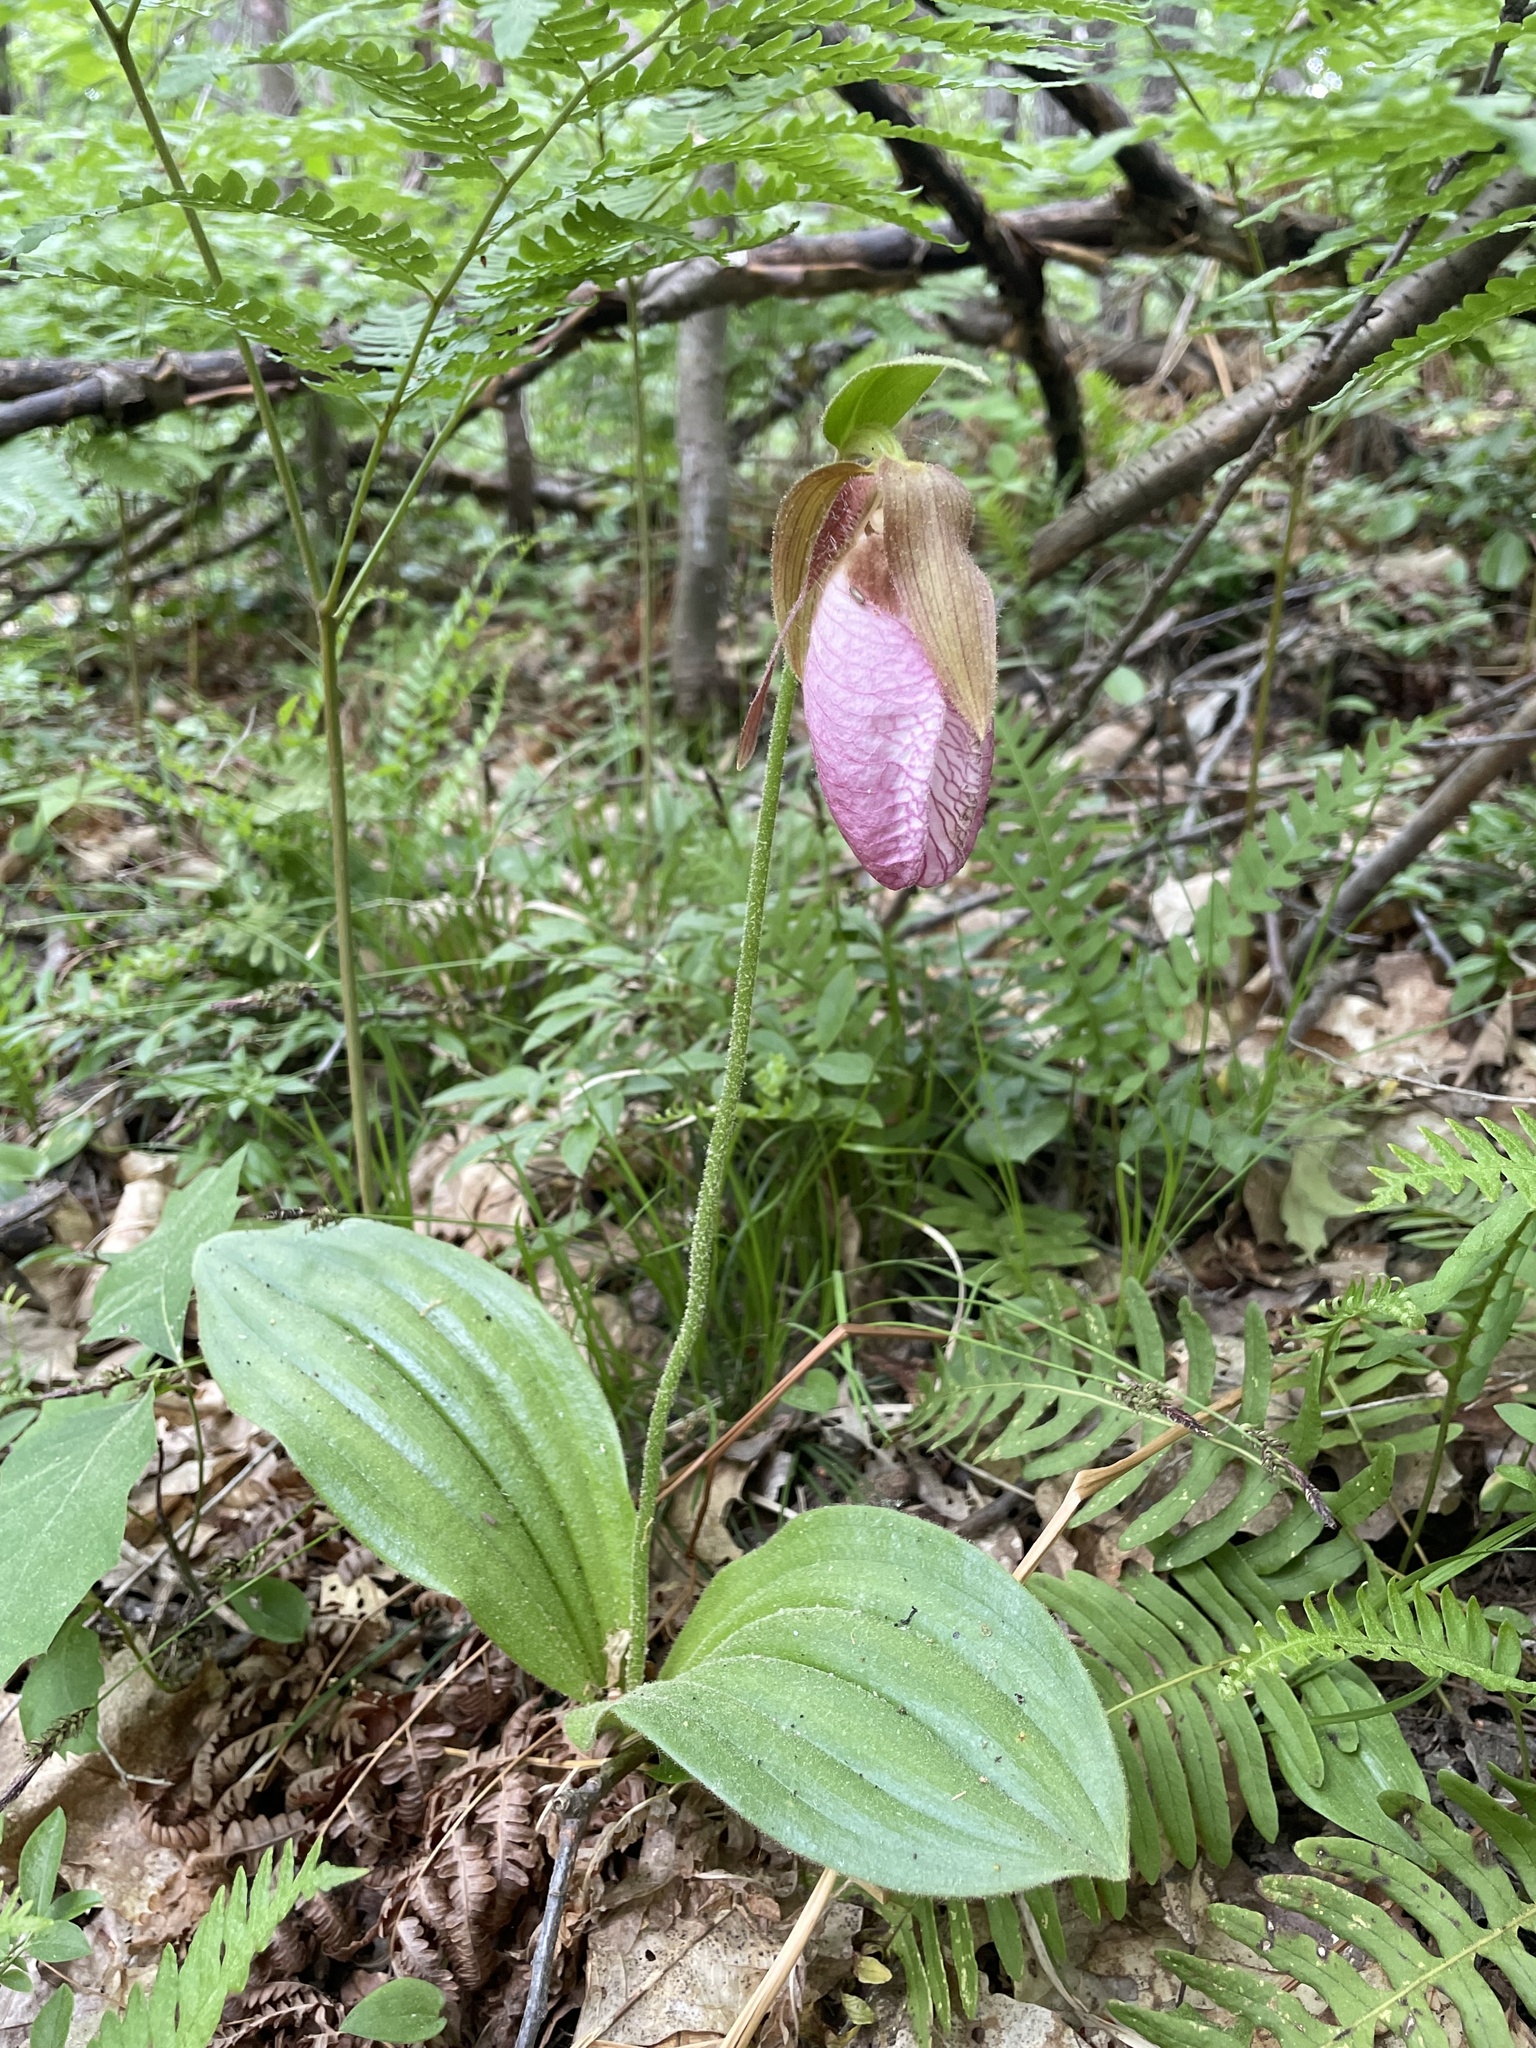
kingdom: Plantae
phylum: Tracheophyta
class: Liliopsida
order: Asparagales
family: Orchidaceae
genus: Cypripedium
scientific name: Cypripedium acaule
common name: Pink lady's-slipper
